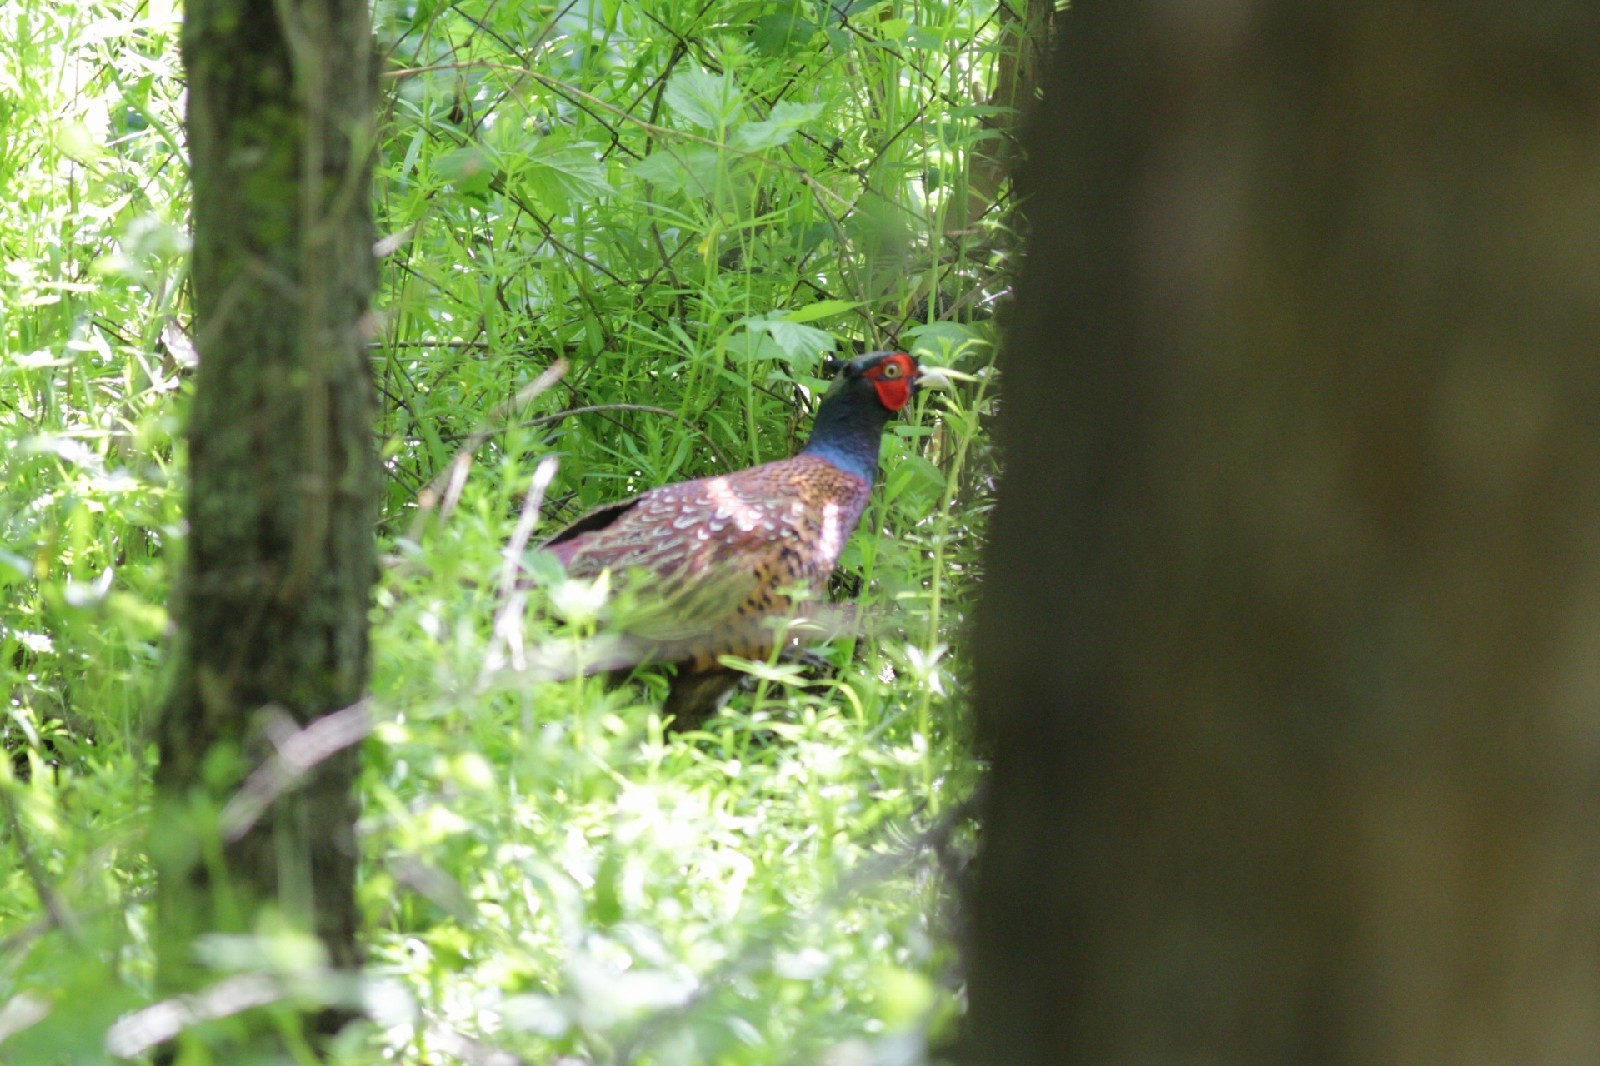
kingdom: Animalia
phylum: Chordata
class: Aves
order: Galliformes
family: Phasianidae
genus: Phasianus
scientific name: Phasianus colchicus
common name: Common pheasant
